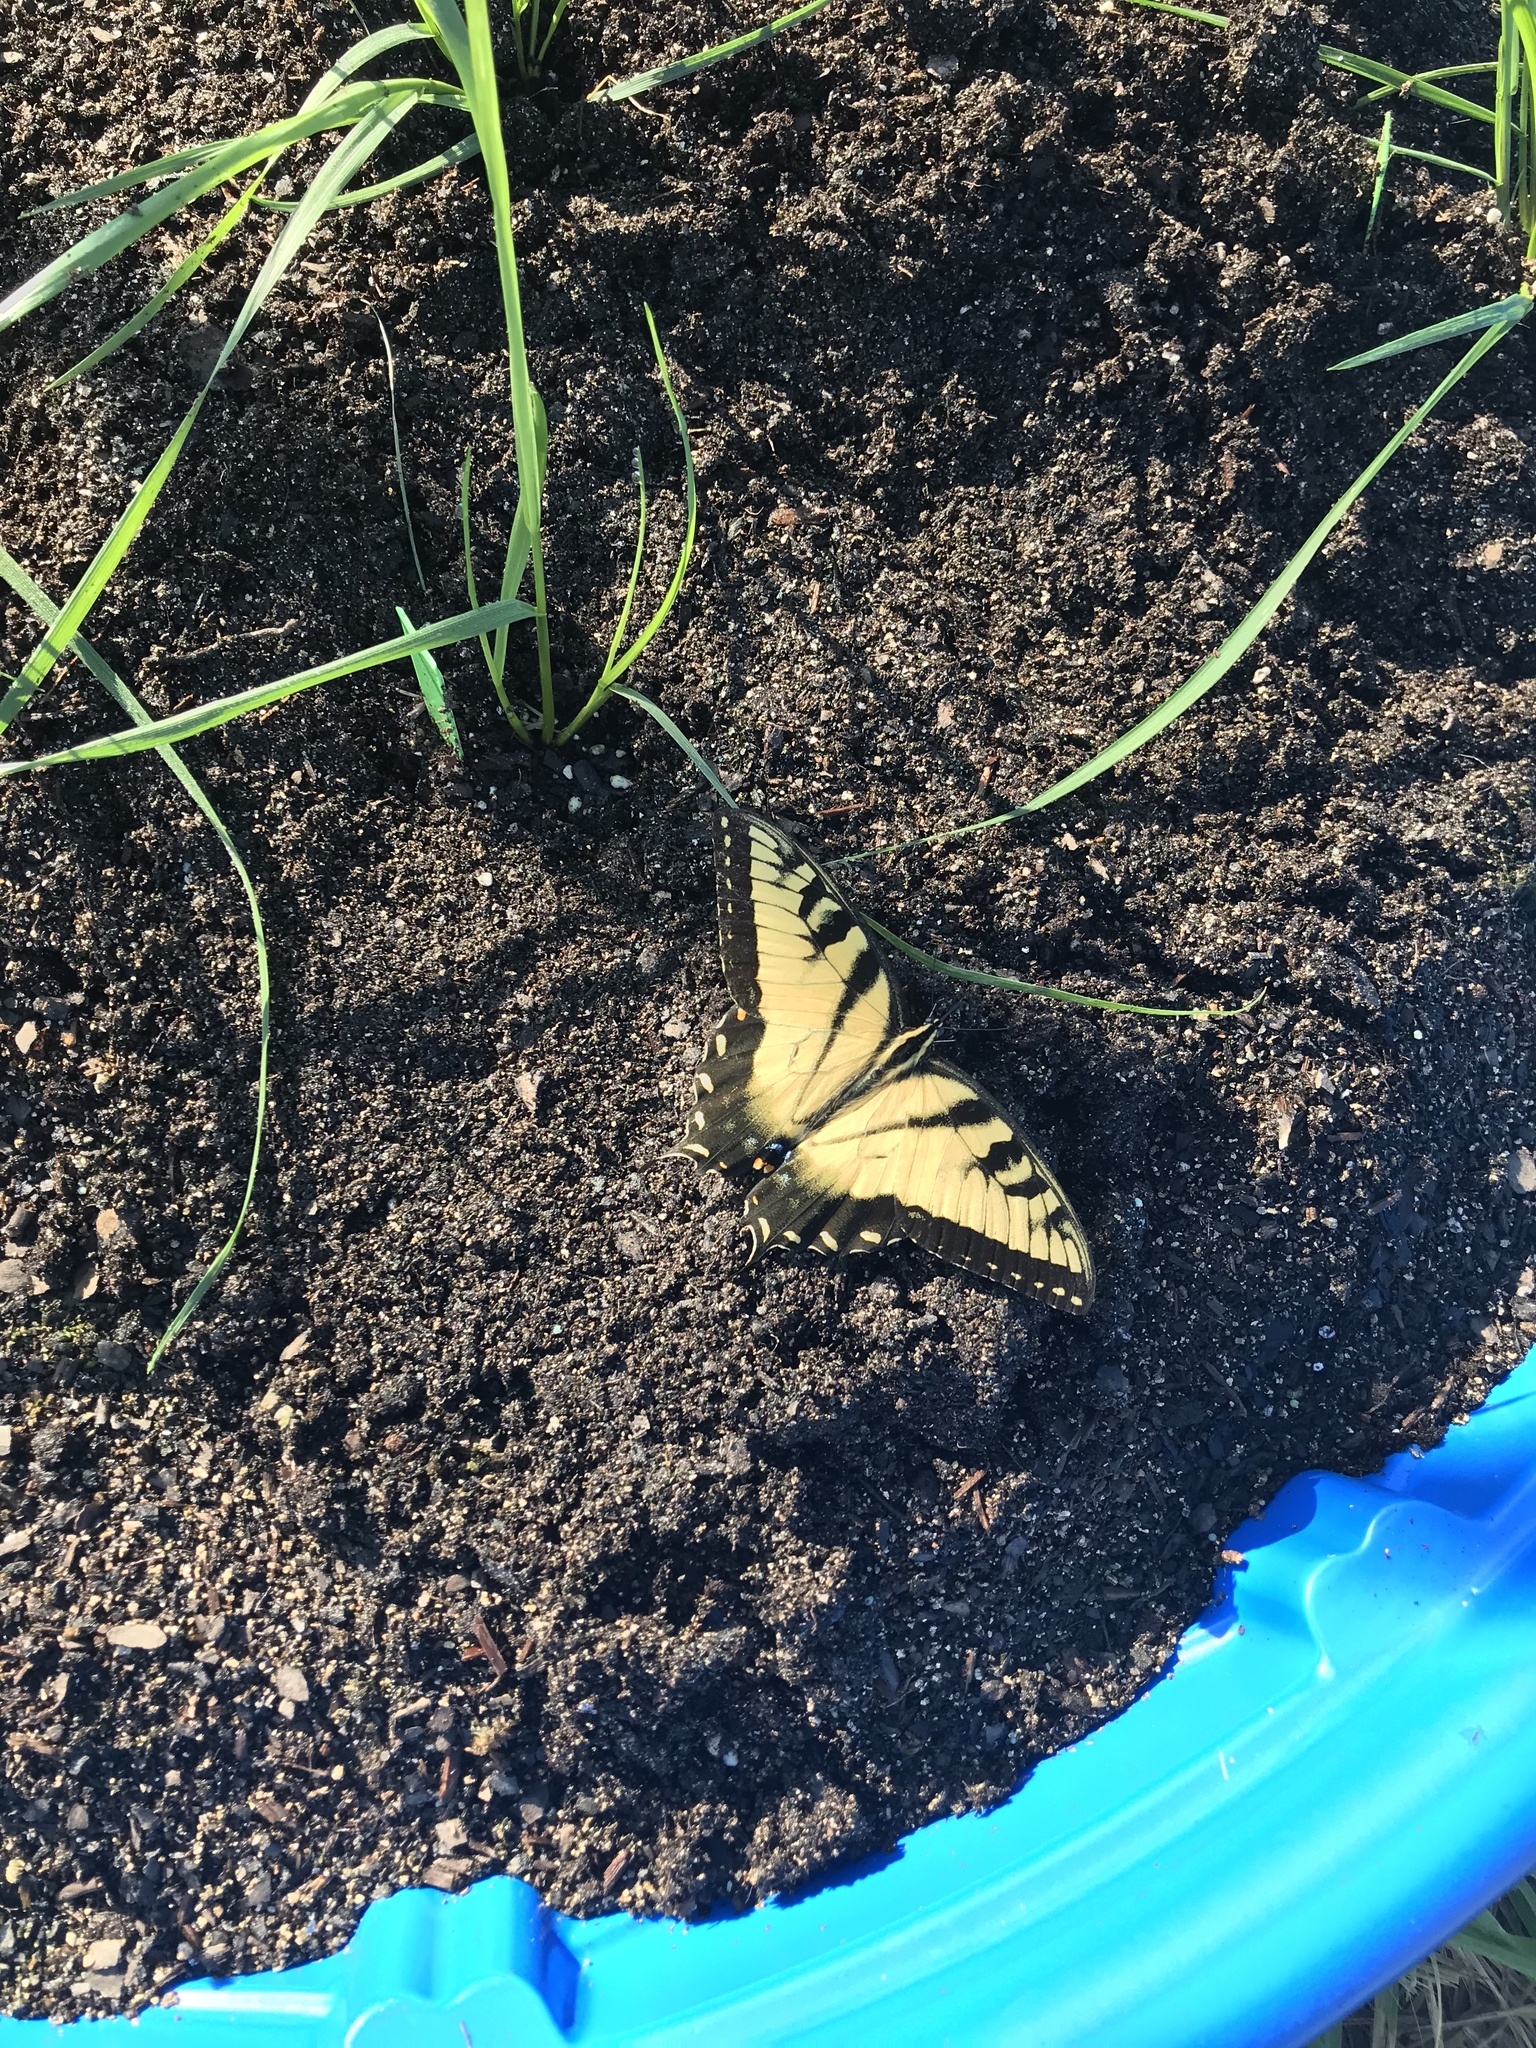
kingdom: Animalia
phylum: Arthropoda
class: Insecta
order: Lepidoptera
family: Papilionidae
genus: Papilio
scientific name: Papilio glaucus
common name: Tiger swallowtail
